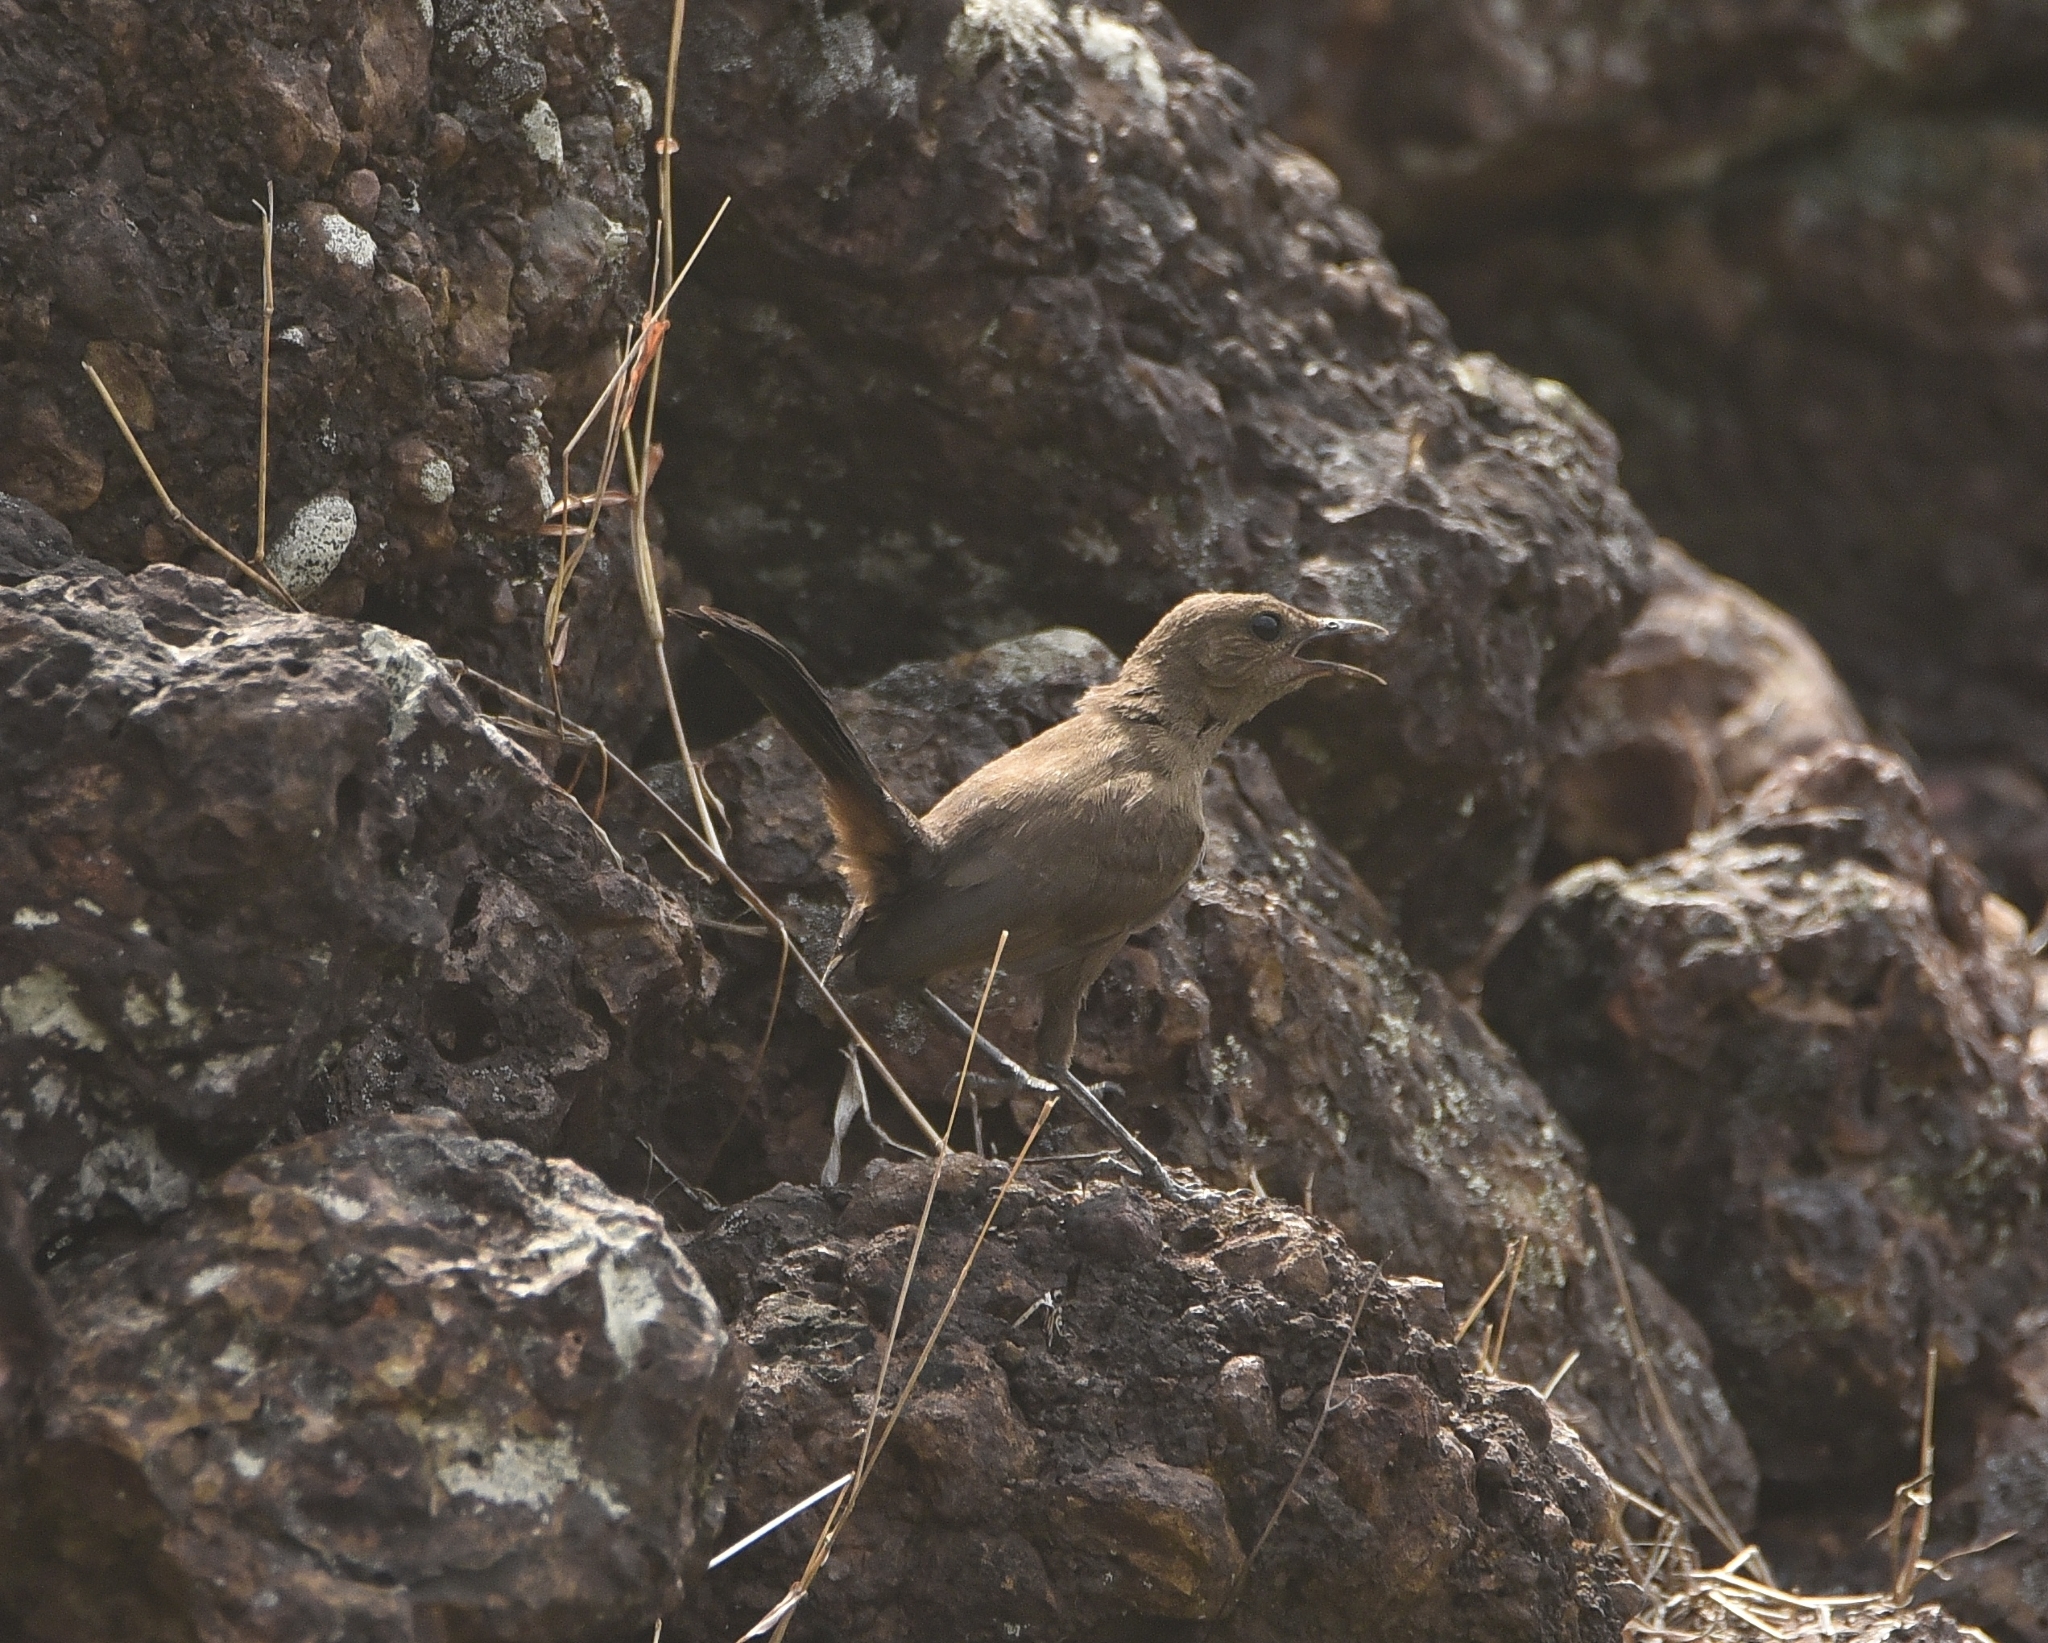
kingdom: Animalia
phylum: Chordata
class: Aves
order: Passeriformes
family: Muscicapidae
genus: Saxicoloides
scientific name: Saxicoloides fulicatus
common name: Indian robin
